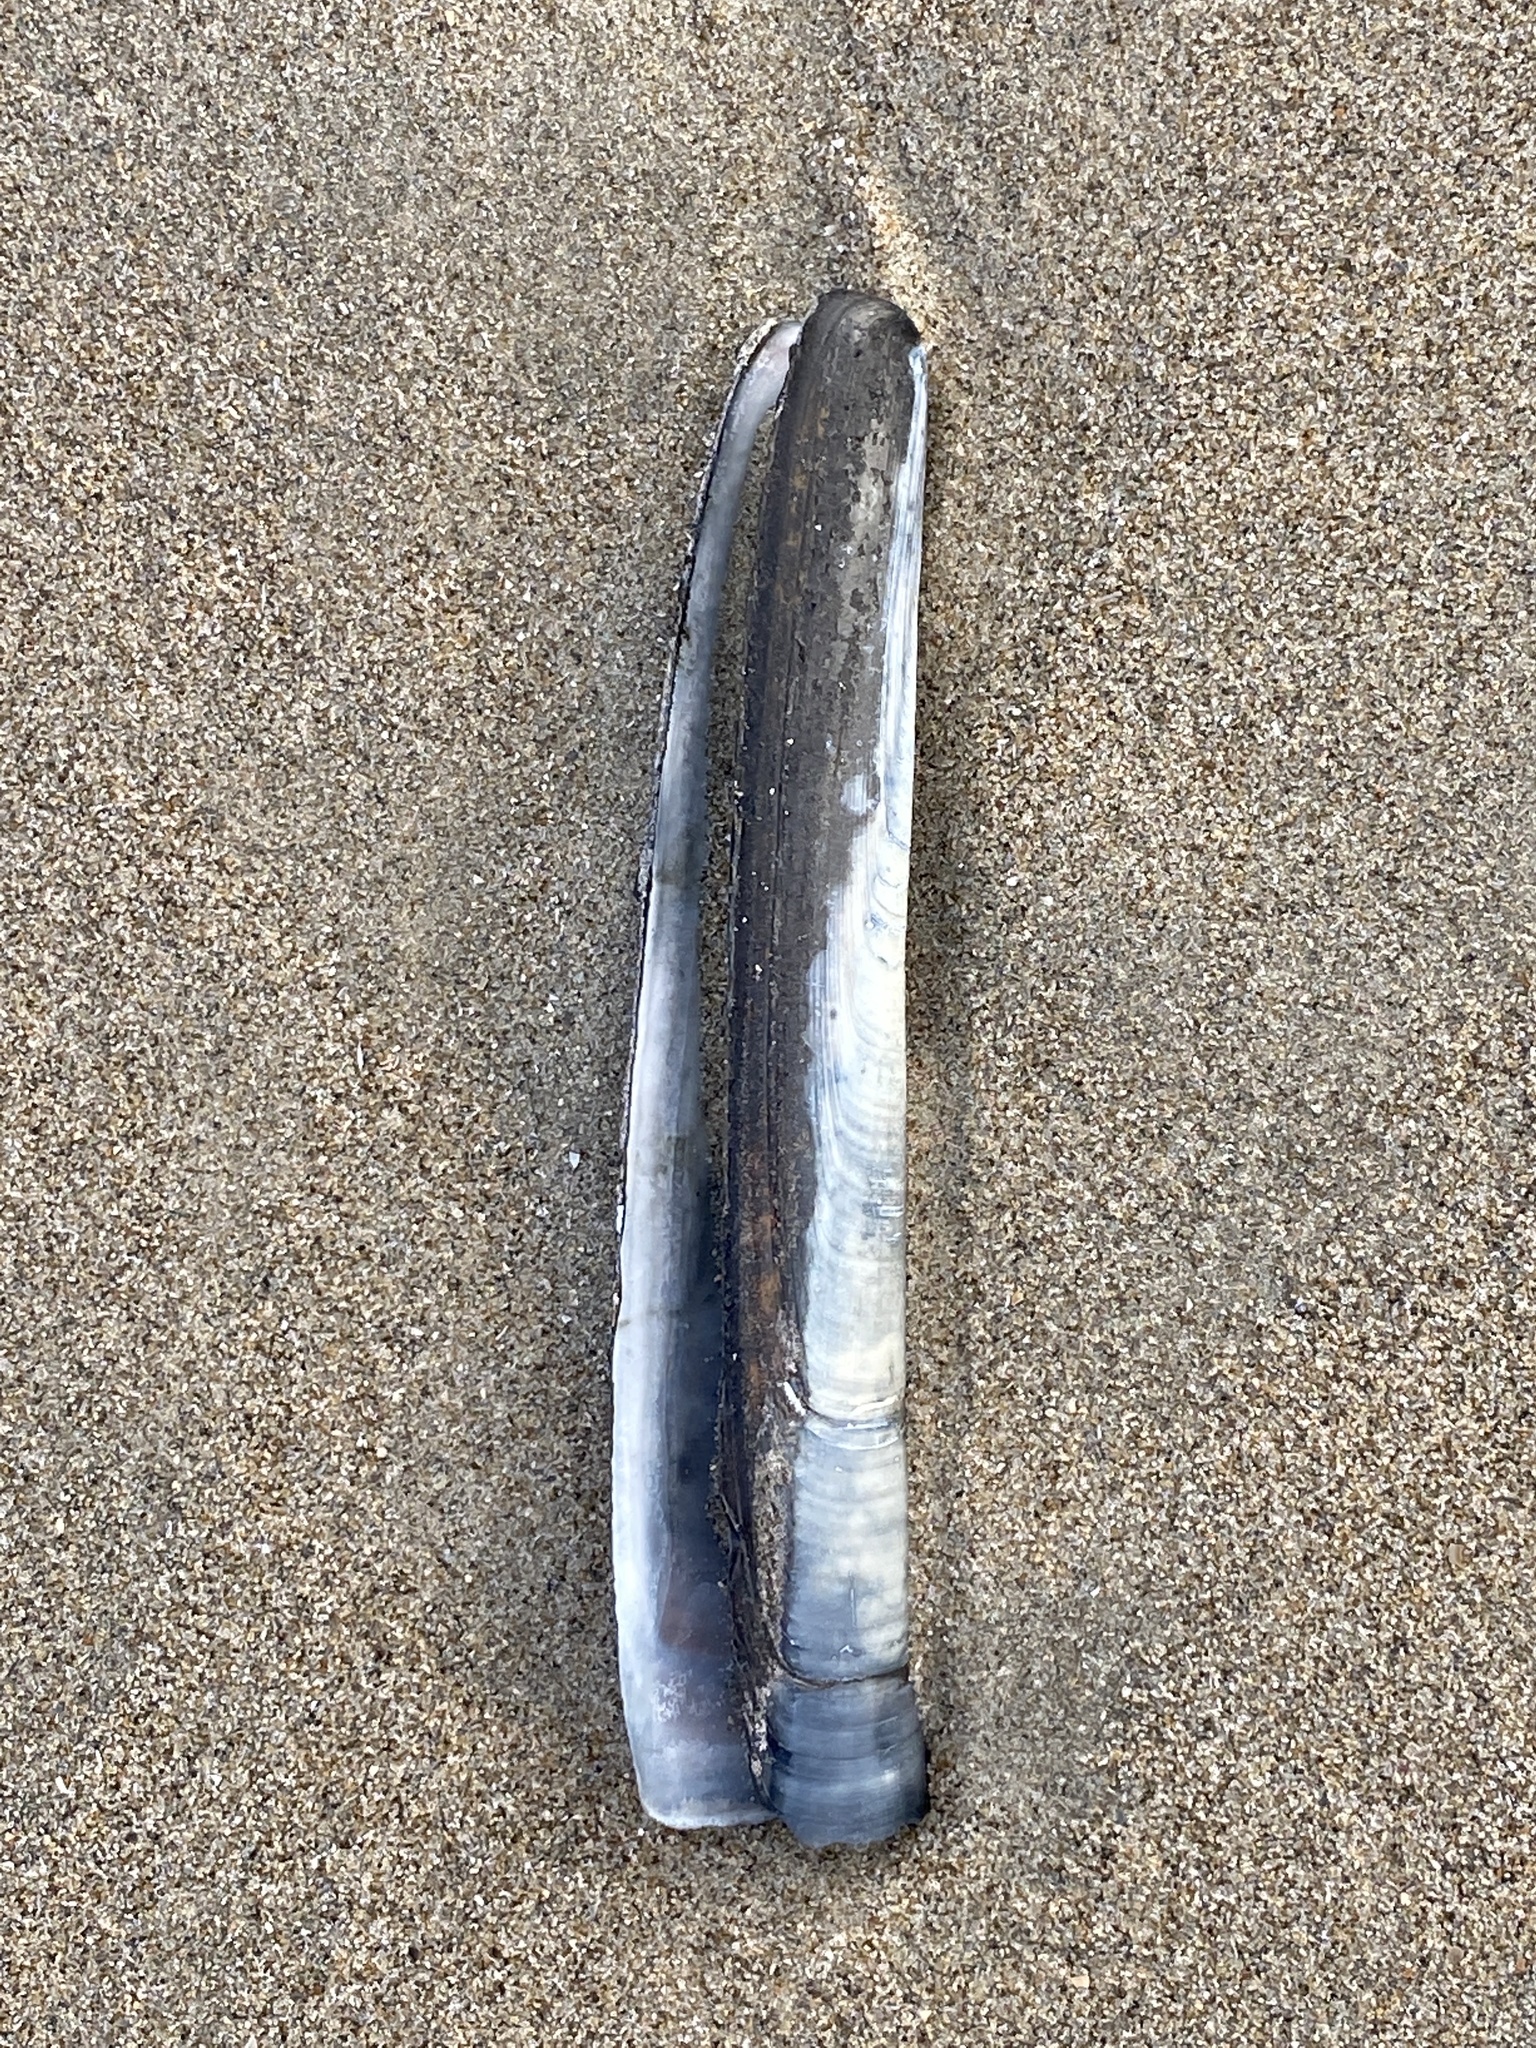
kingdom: Animalia
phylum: Mollusca
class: Bivalvia
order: Adapedonta
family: Pharidae
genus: Ensis
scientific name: Ensis leei
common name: American jack knife clam
